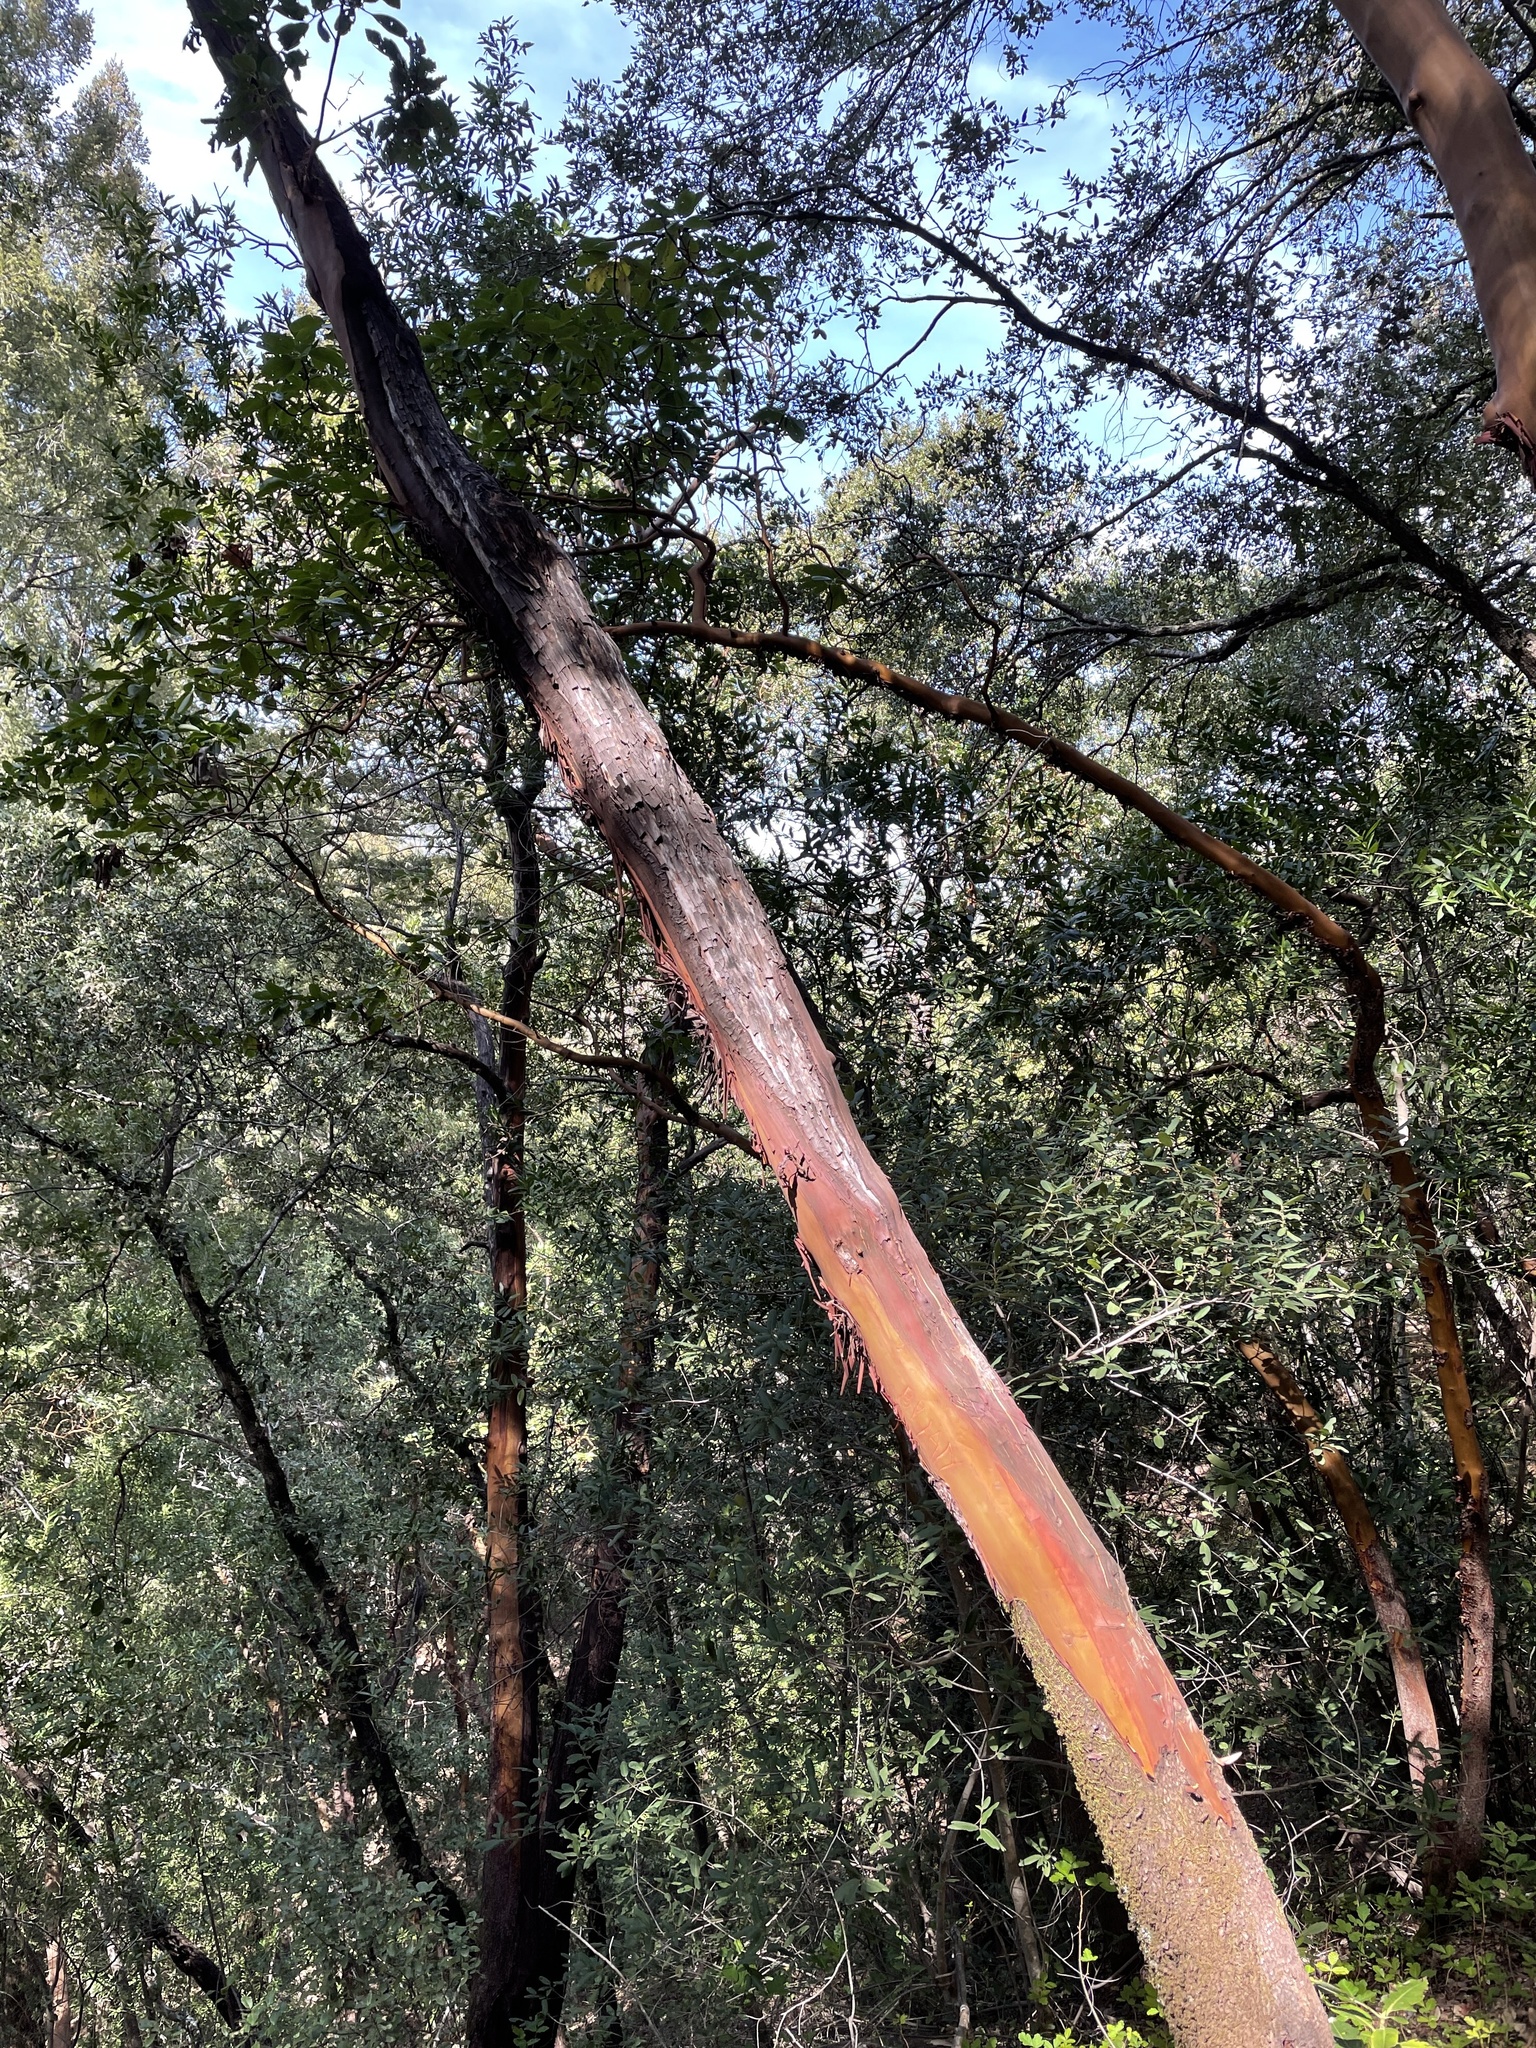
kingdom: Plantae
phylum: Tracheophyta
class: Magnoliopsida
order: Ericales
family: Ericaceae
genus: Arbutus
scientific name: Arbutus menziesii
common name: Pacific madrone
